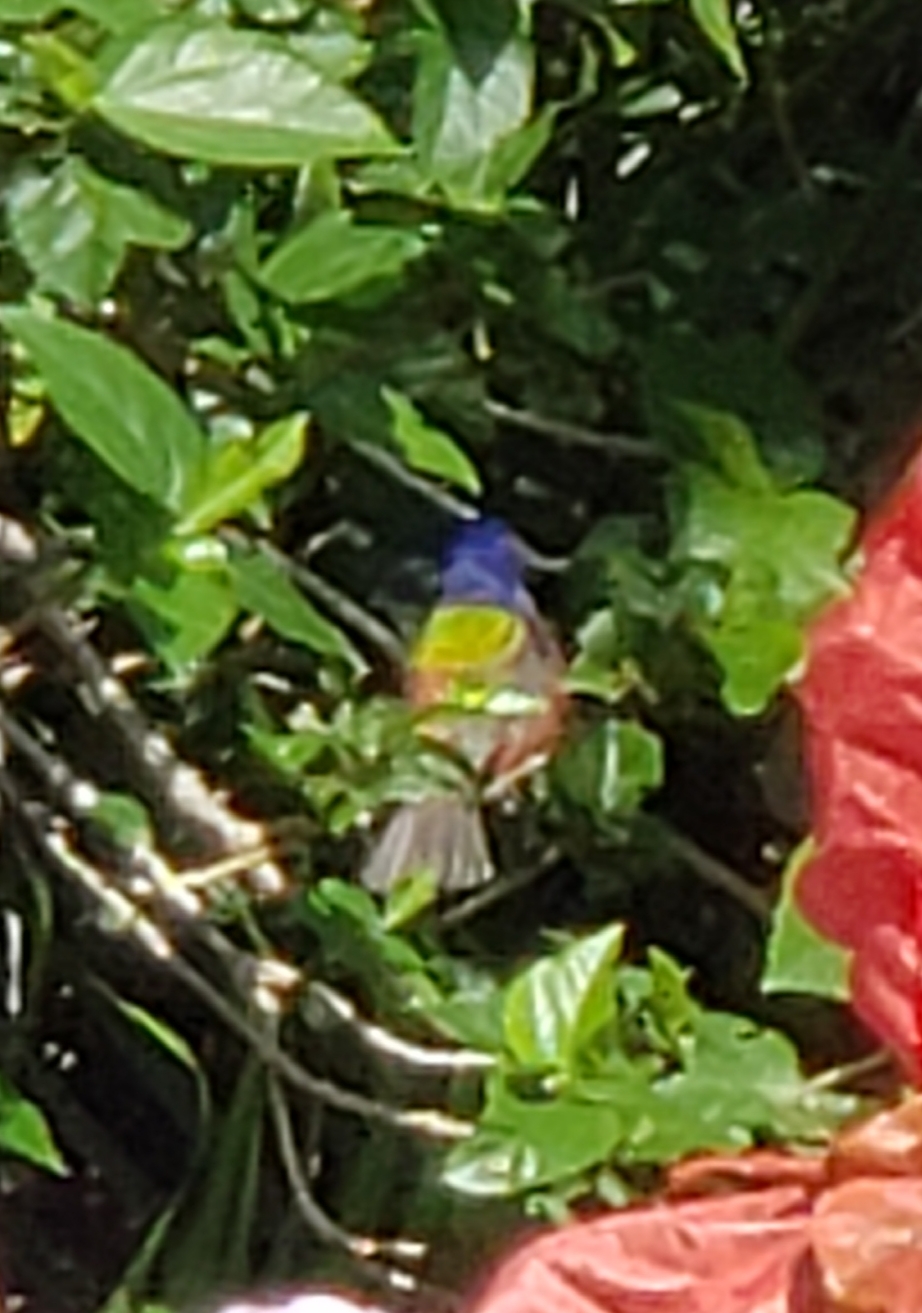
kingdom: Animalia
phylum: Chordata
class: Aves
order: Passeriformes
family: Cardinalidae
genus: Passerina
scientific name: Passerina ciris
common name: Painted bunting
